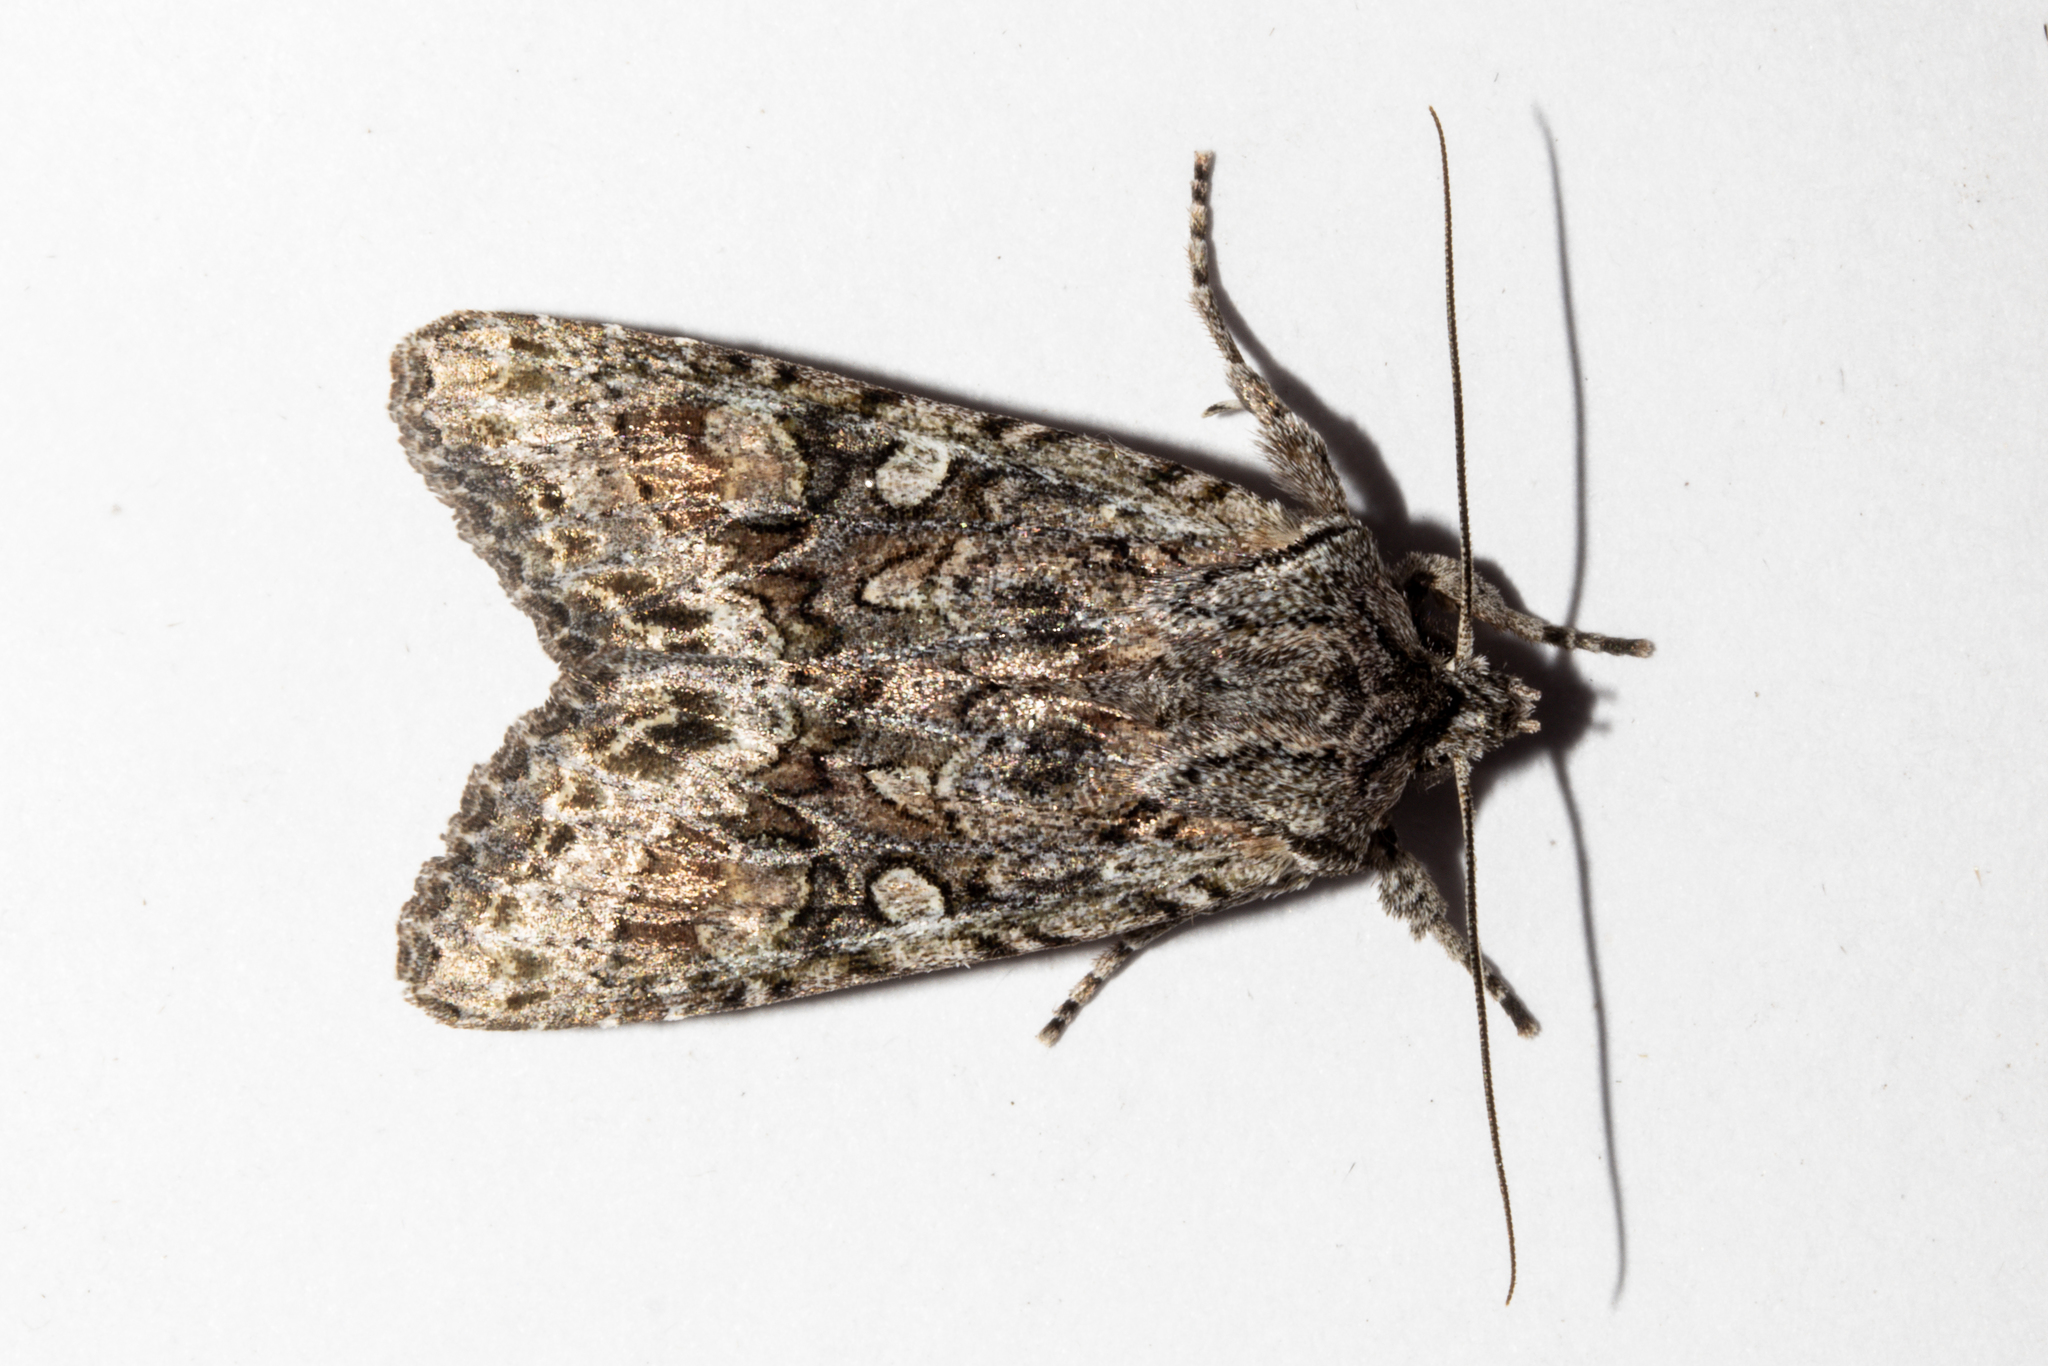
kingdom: Animalia
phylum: Arthropoda
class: Insecta
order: Lepidoptera
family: Noctuidae
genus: Ichneutica
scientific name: Ichneutica mutans
